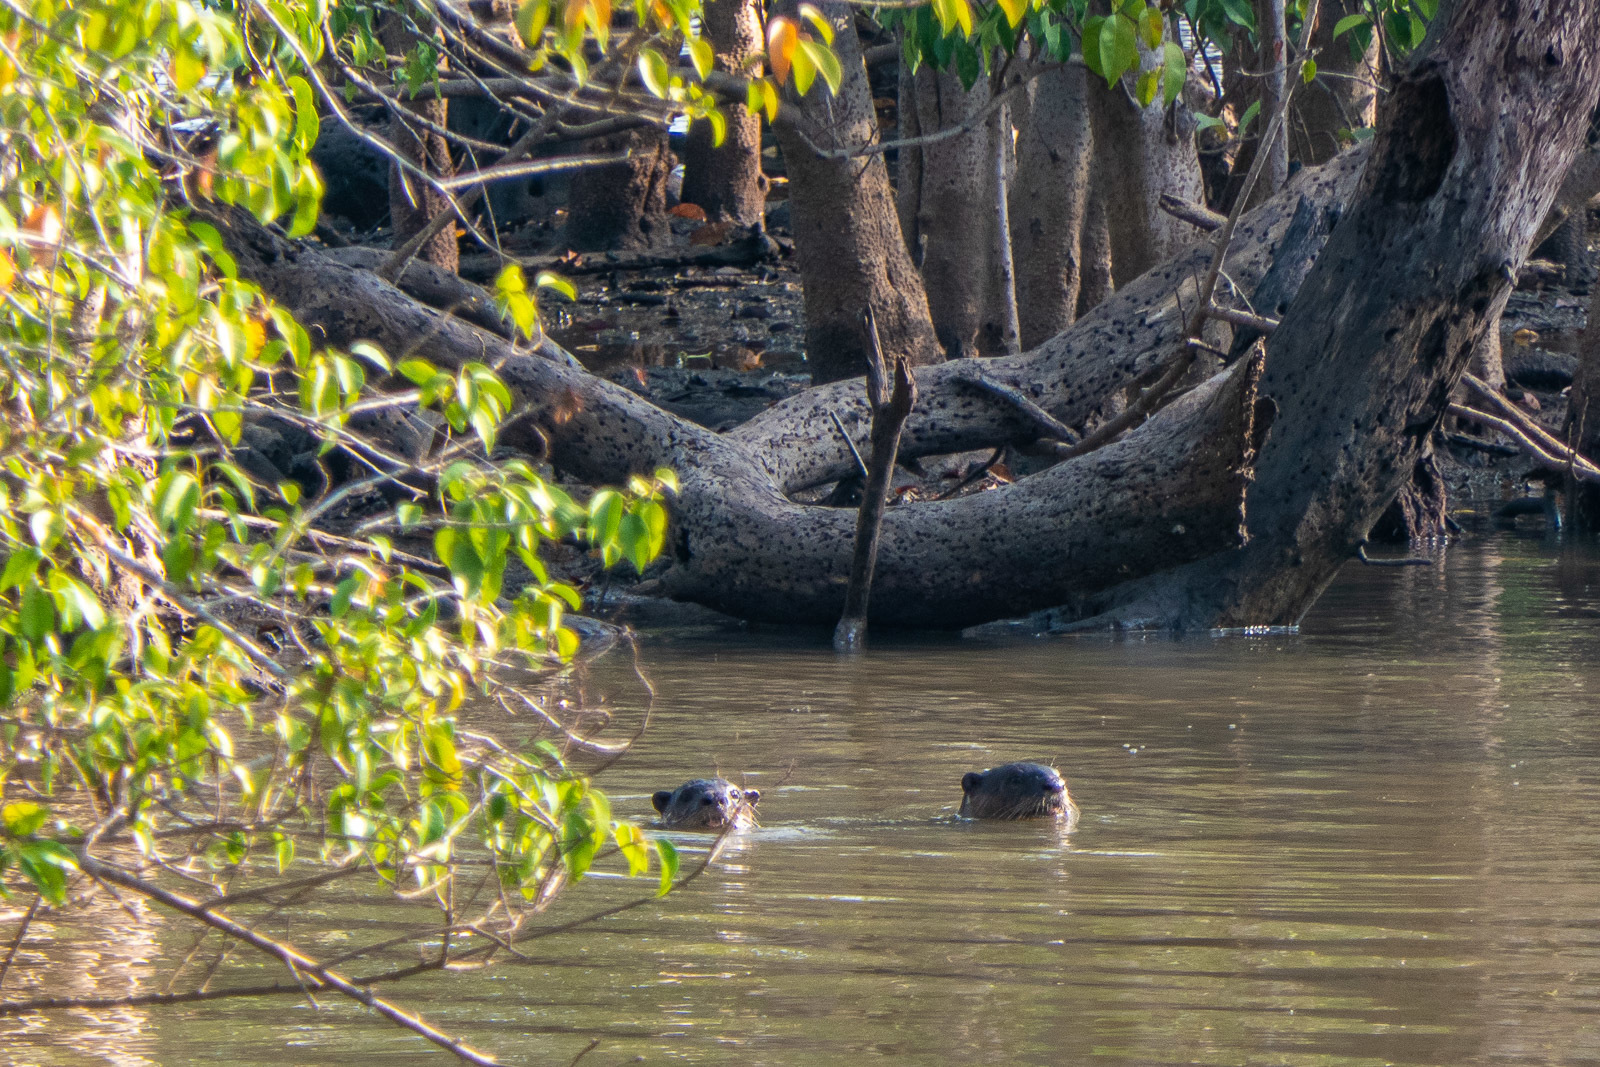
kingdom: Animalia
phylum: Chordata
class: Mammalia
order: Carnivora
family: Mustelidae
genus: Lutrogale
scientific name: Lutrogale perspicillata
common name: Smooth-coated otter
